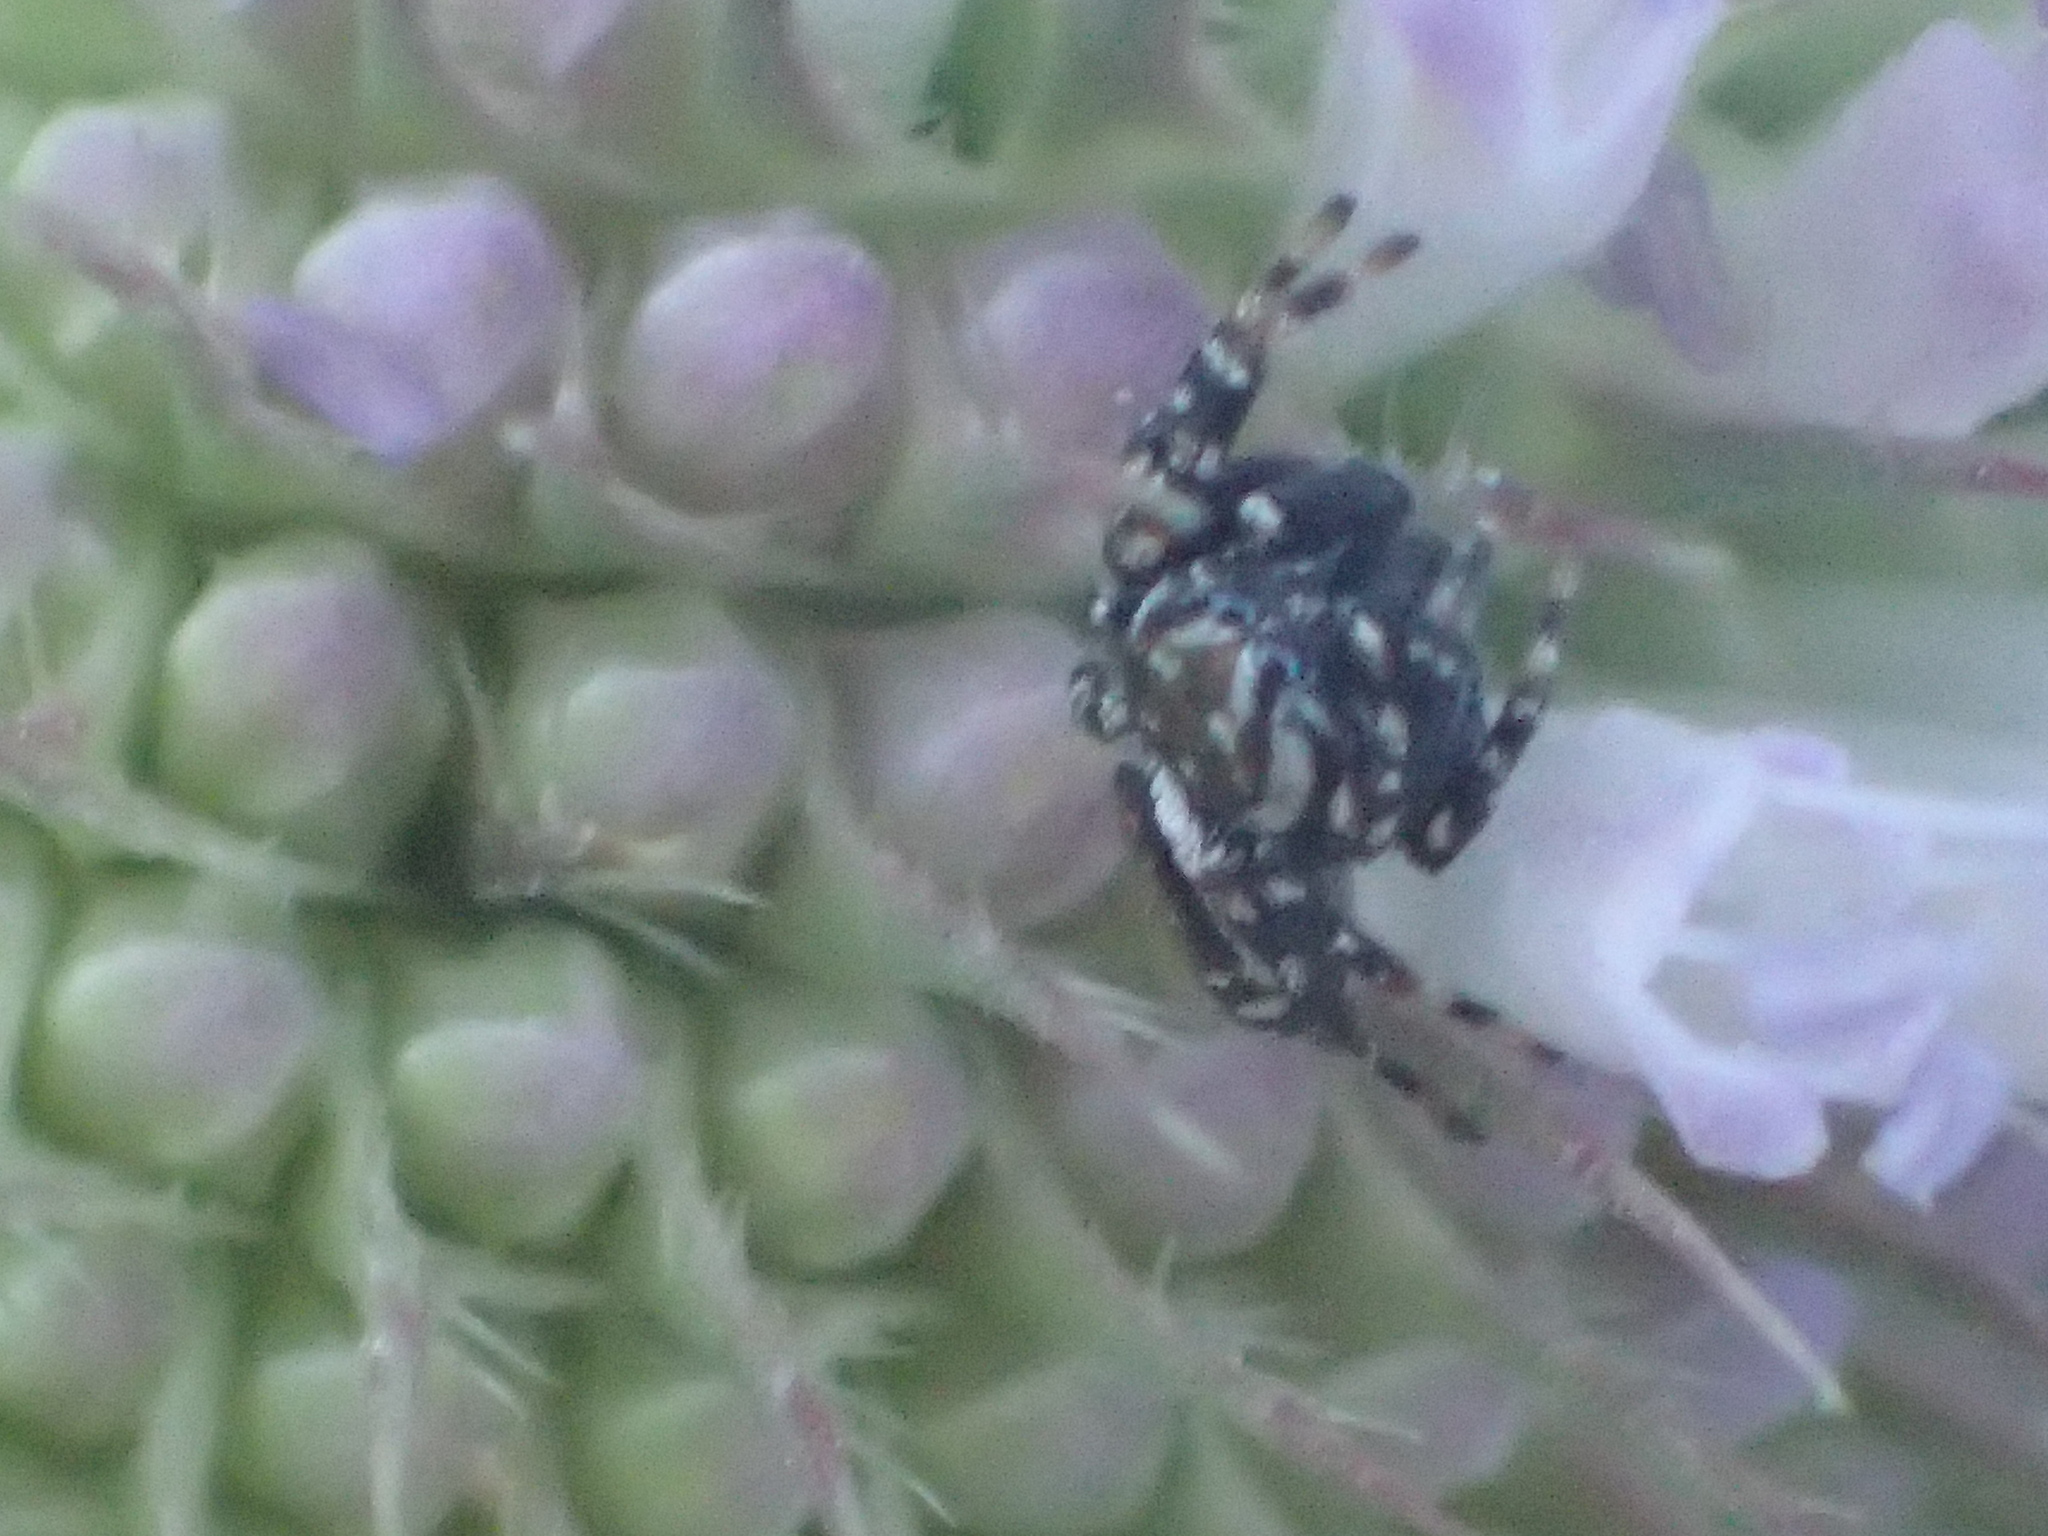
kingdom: Animalia
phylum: Arthropoda
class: Arachnida
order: Araneae
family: Salticidae
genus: Pelegrina
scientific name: Pelegrina galathea
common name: Jumping spiders
